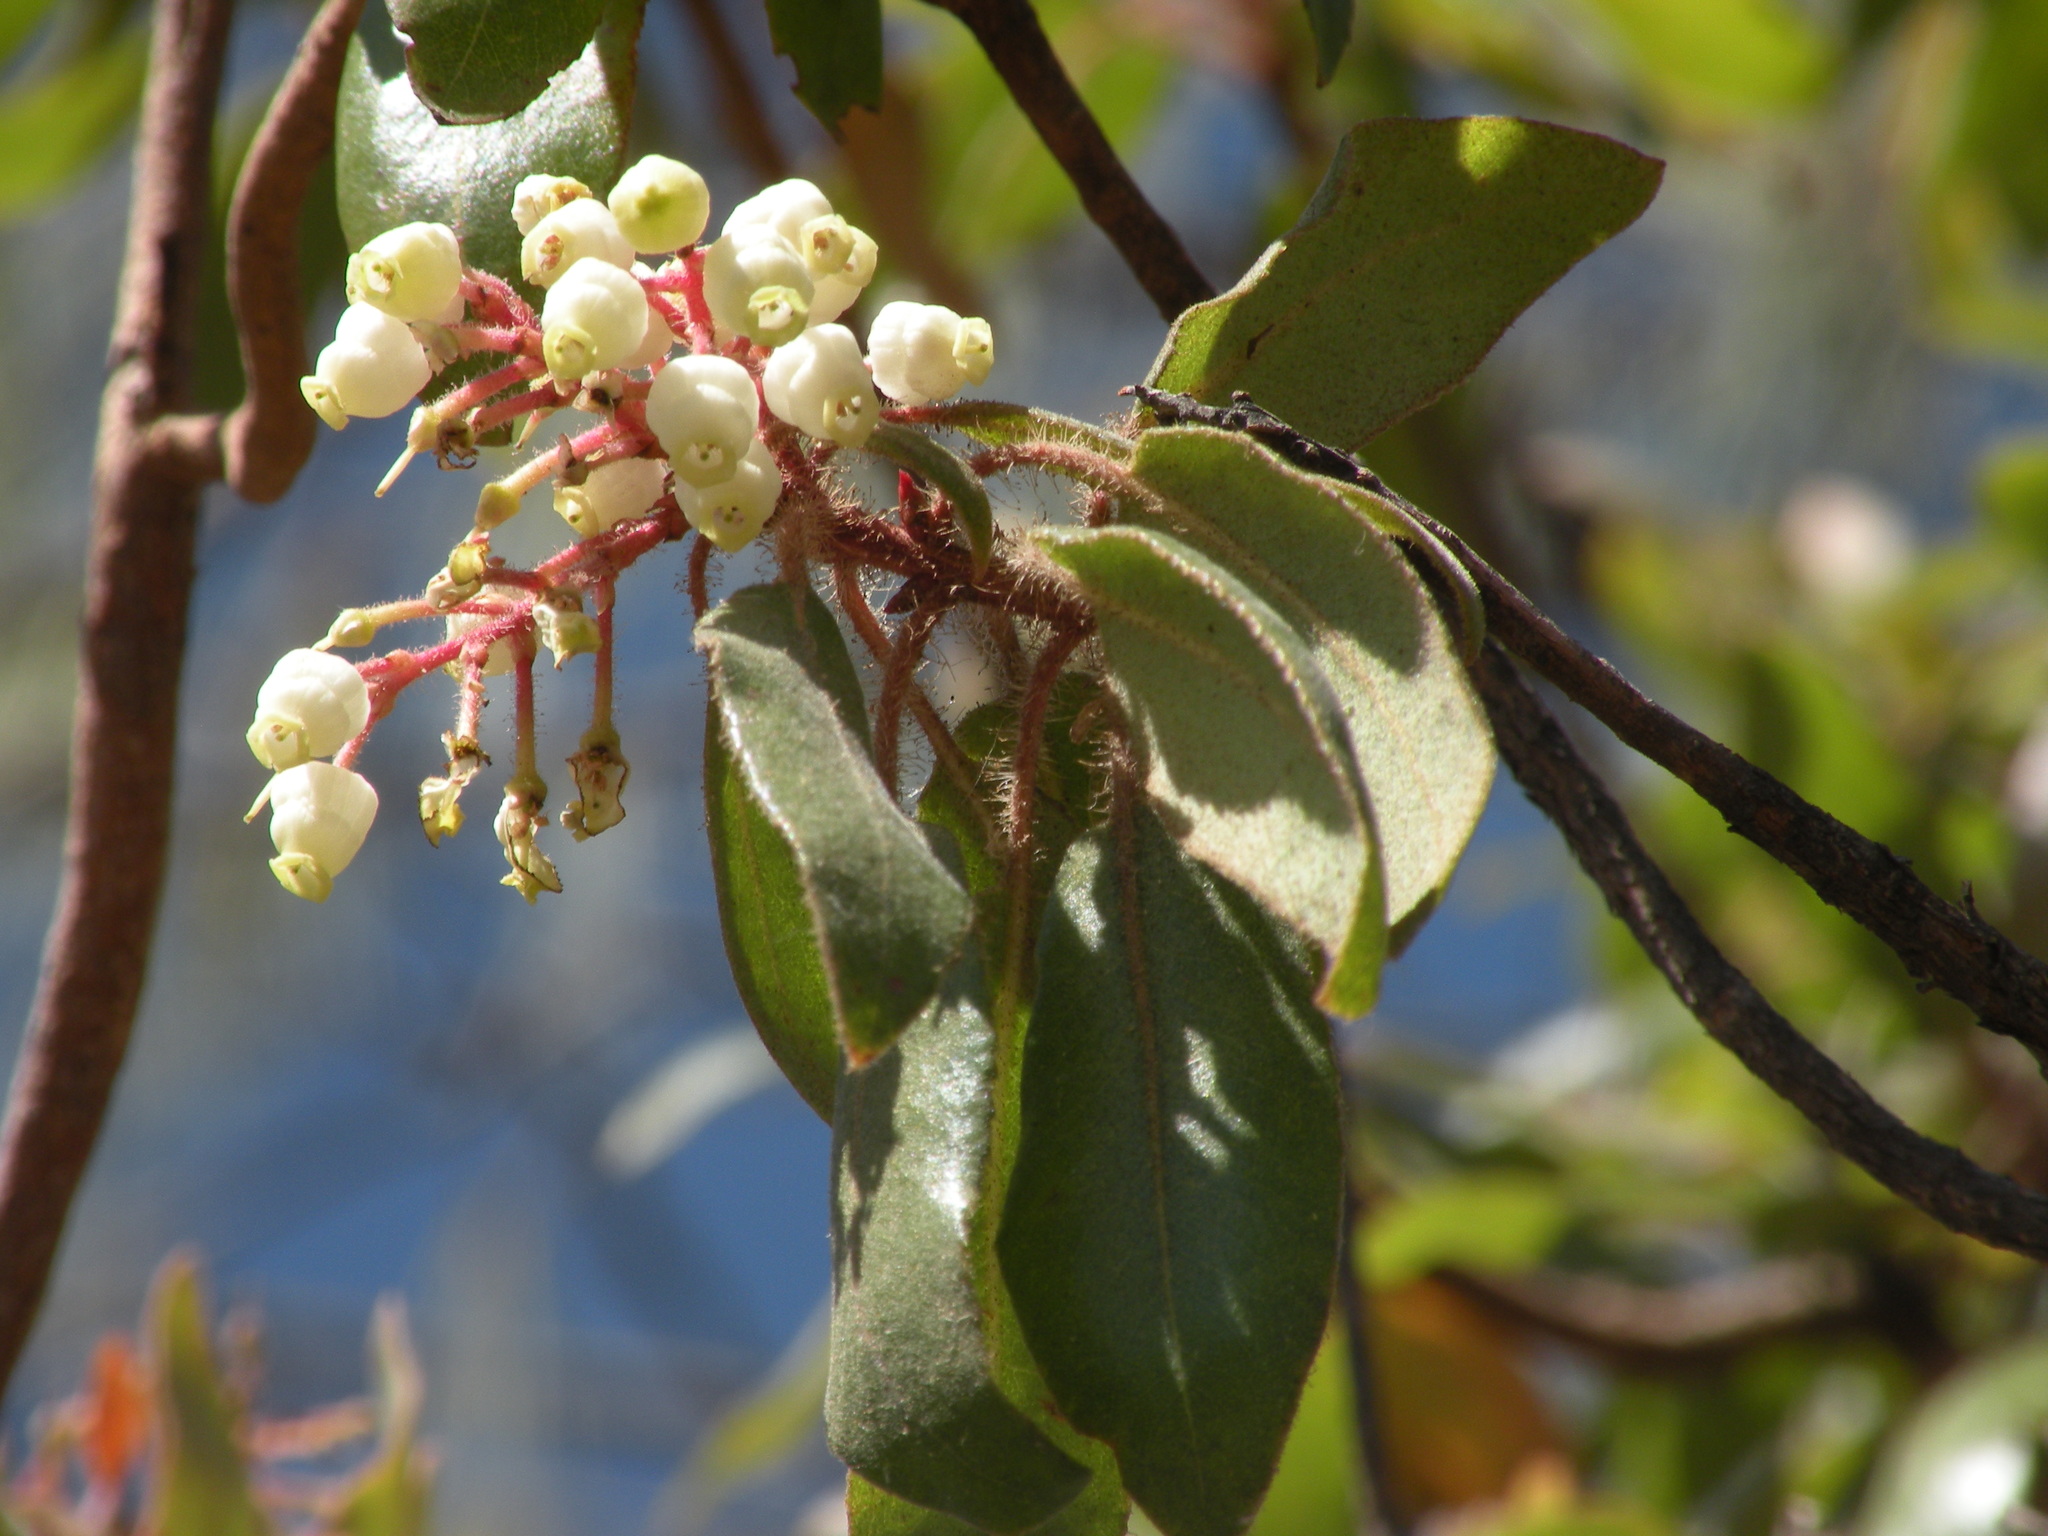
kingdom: Plantae
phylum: Tracheophyta
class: Magnoliopsida
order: Ericales
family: Ericaceae
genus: Arbutus
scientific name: Arbutus tessellata
